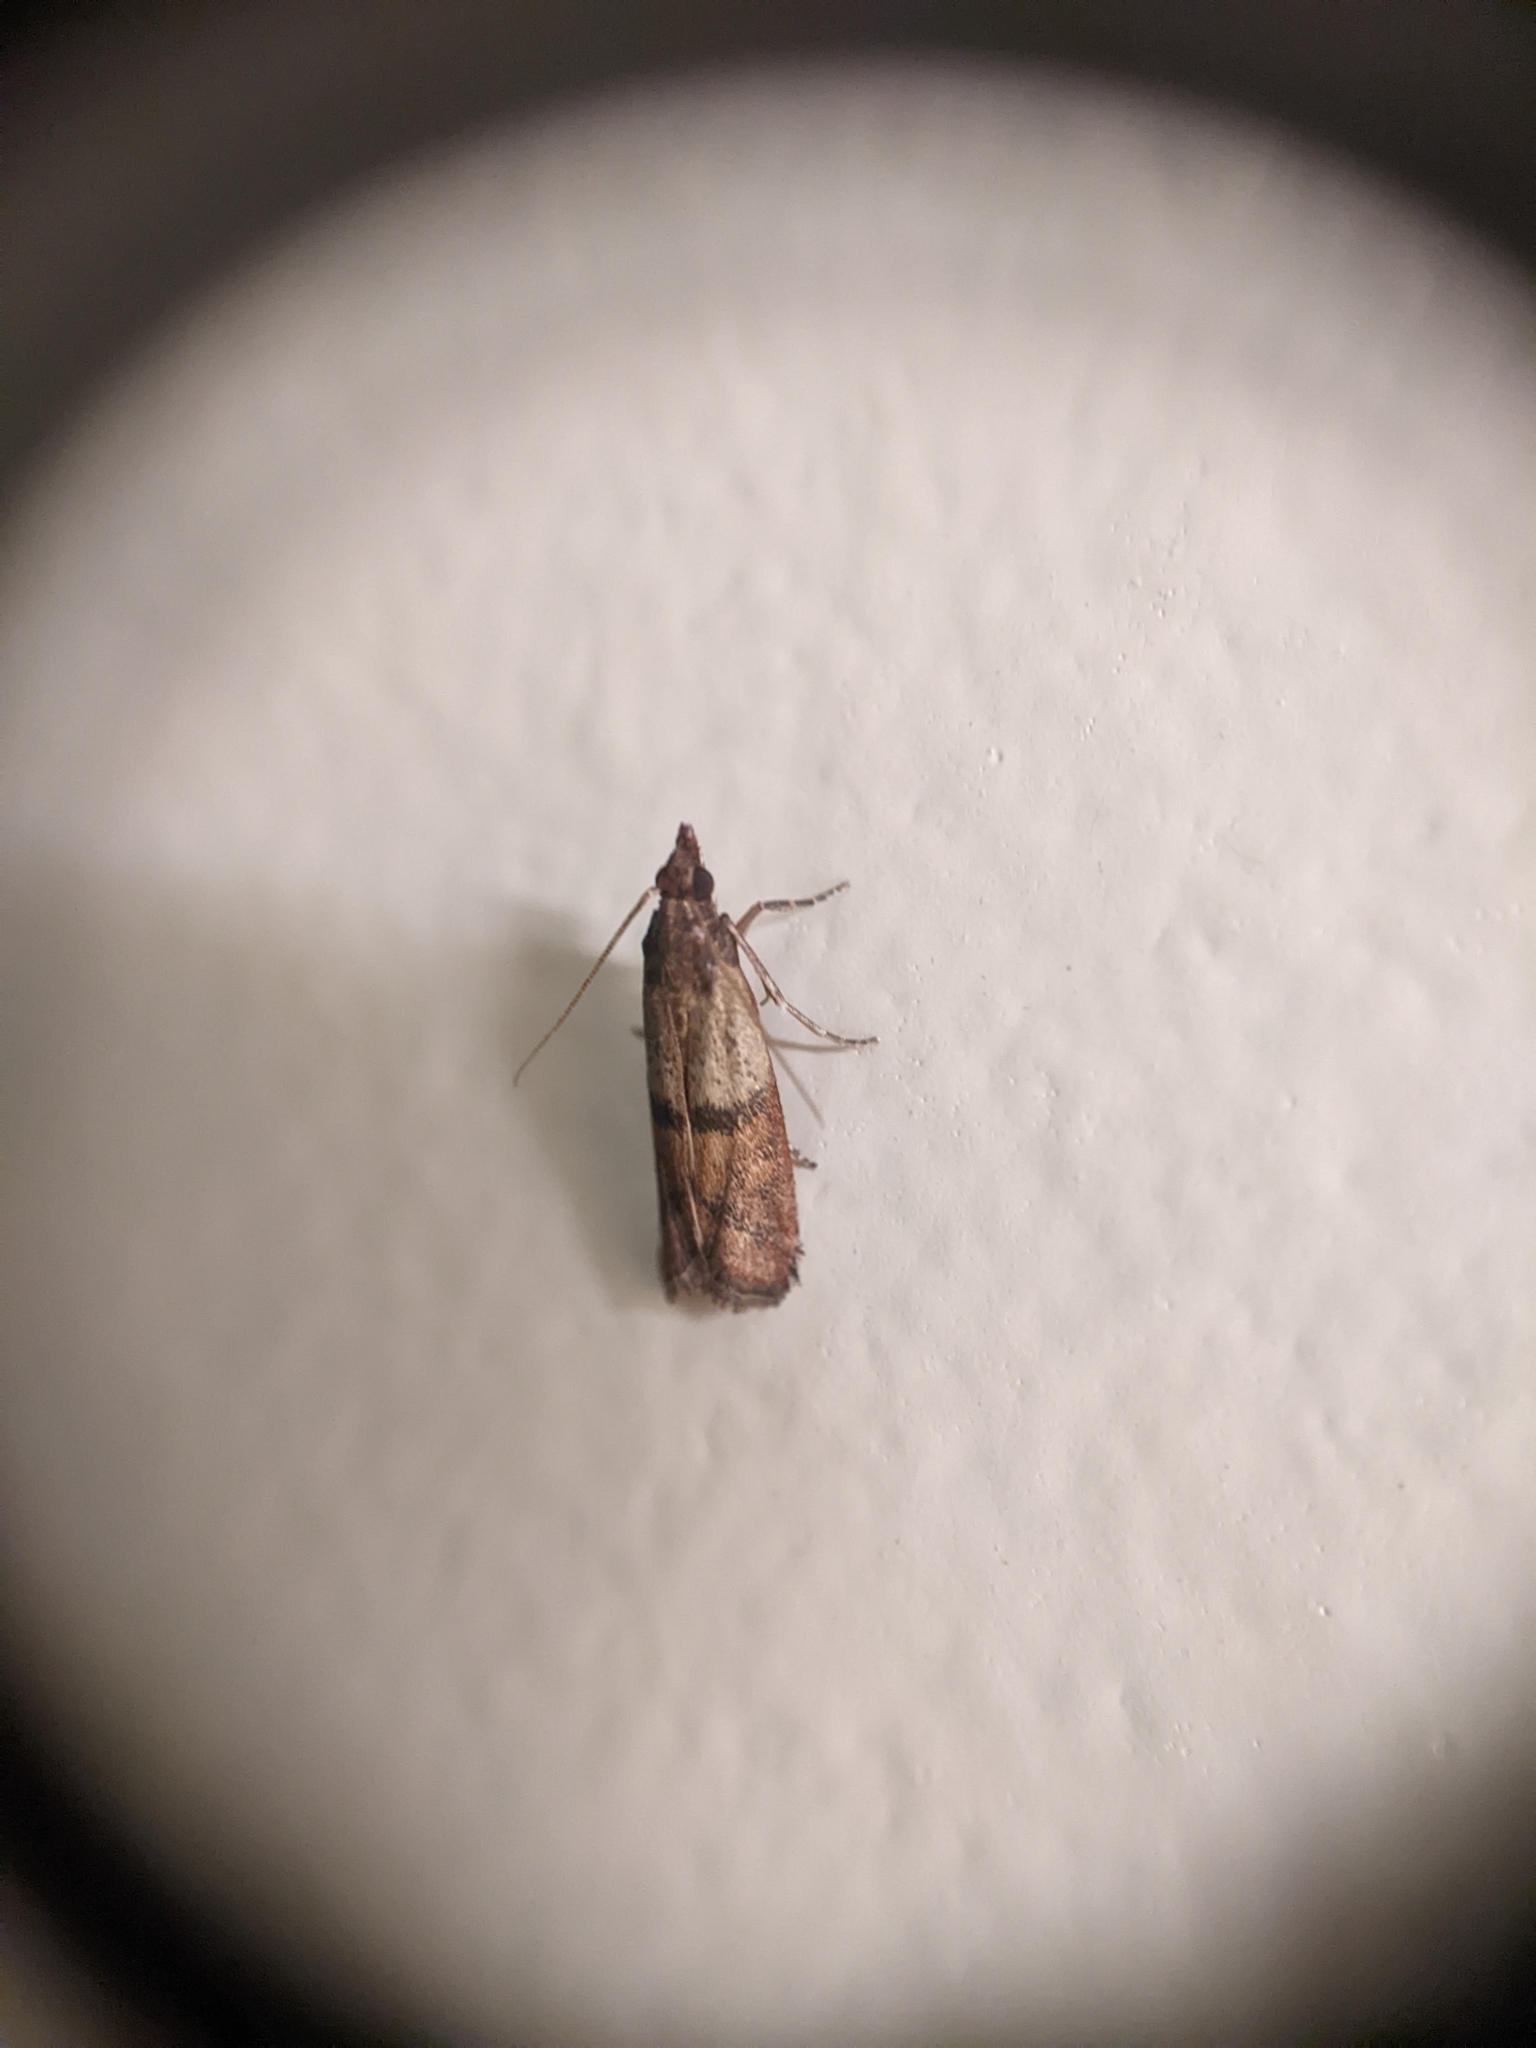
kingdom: Animalia
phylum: Arthropoda
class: Insecta
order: Lepidoptera
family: Pyralidae
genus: Plodia
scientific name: Plodia interpunctella
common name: Indian meal moth
